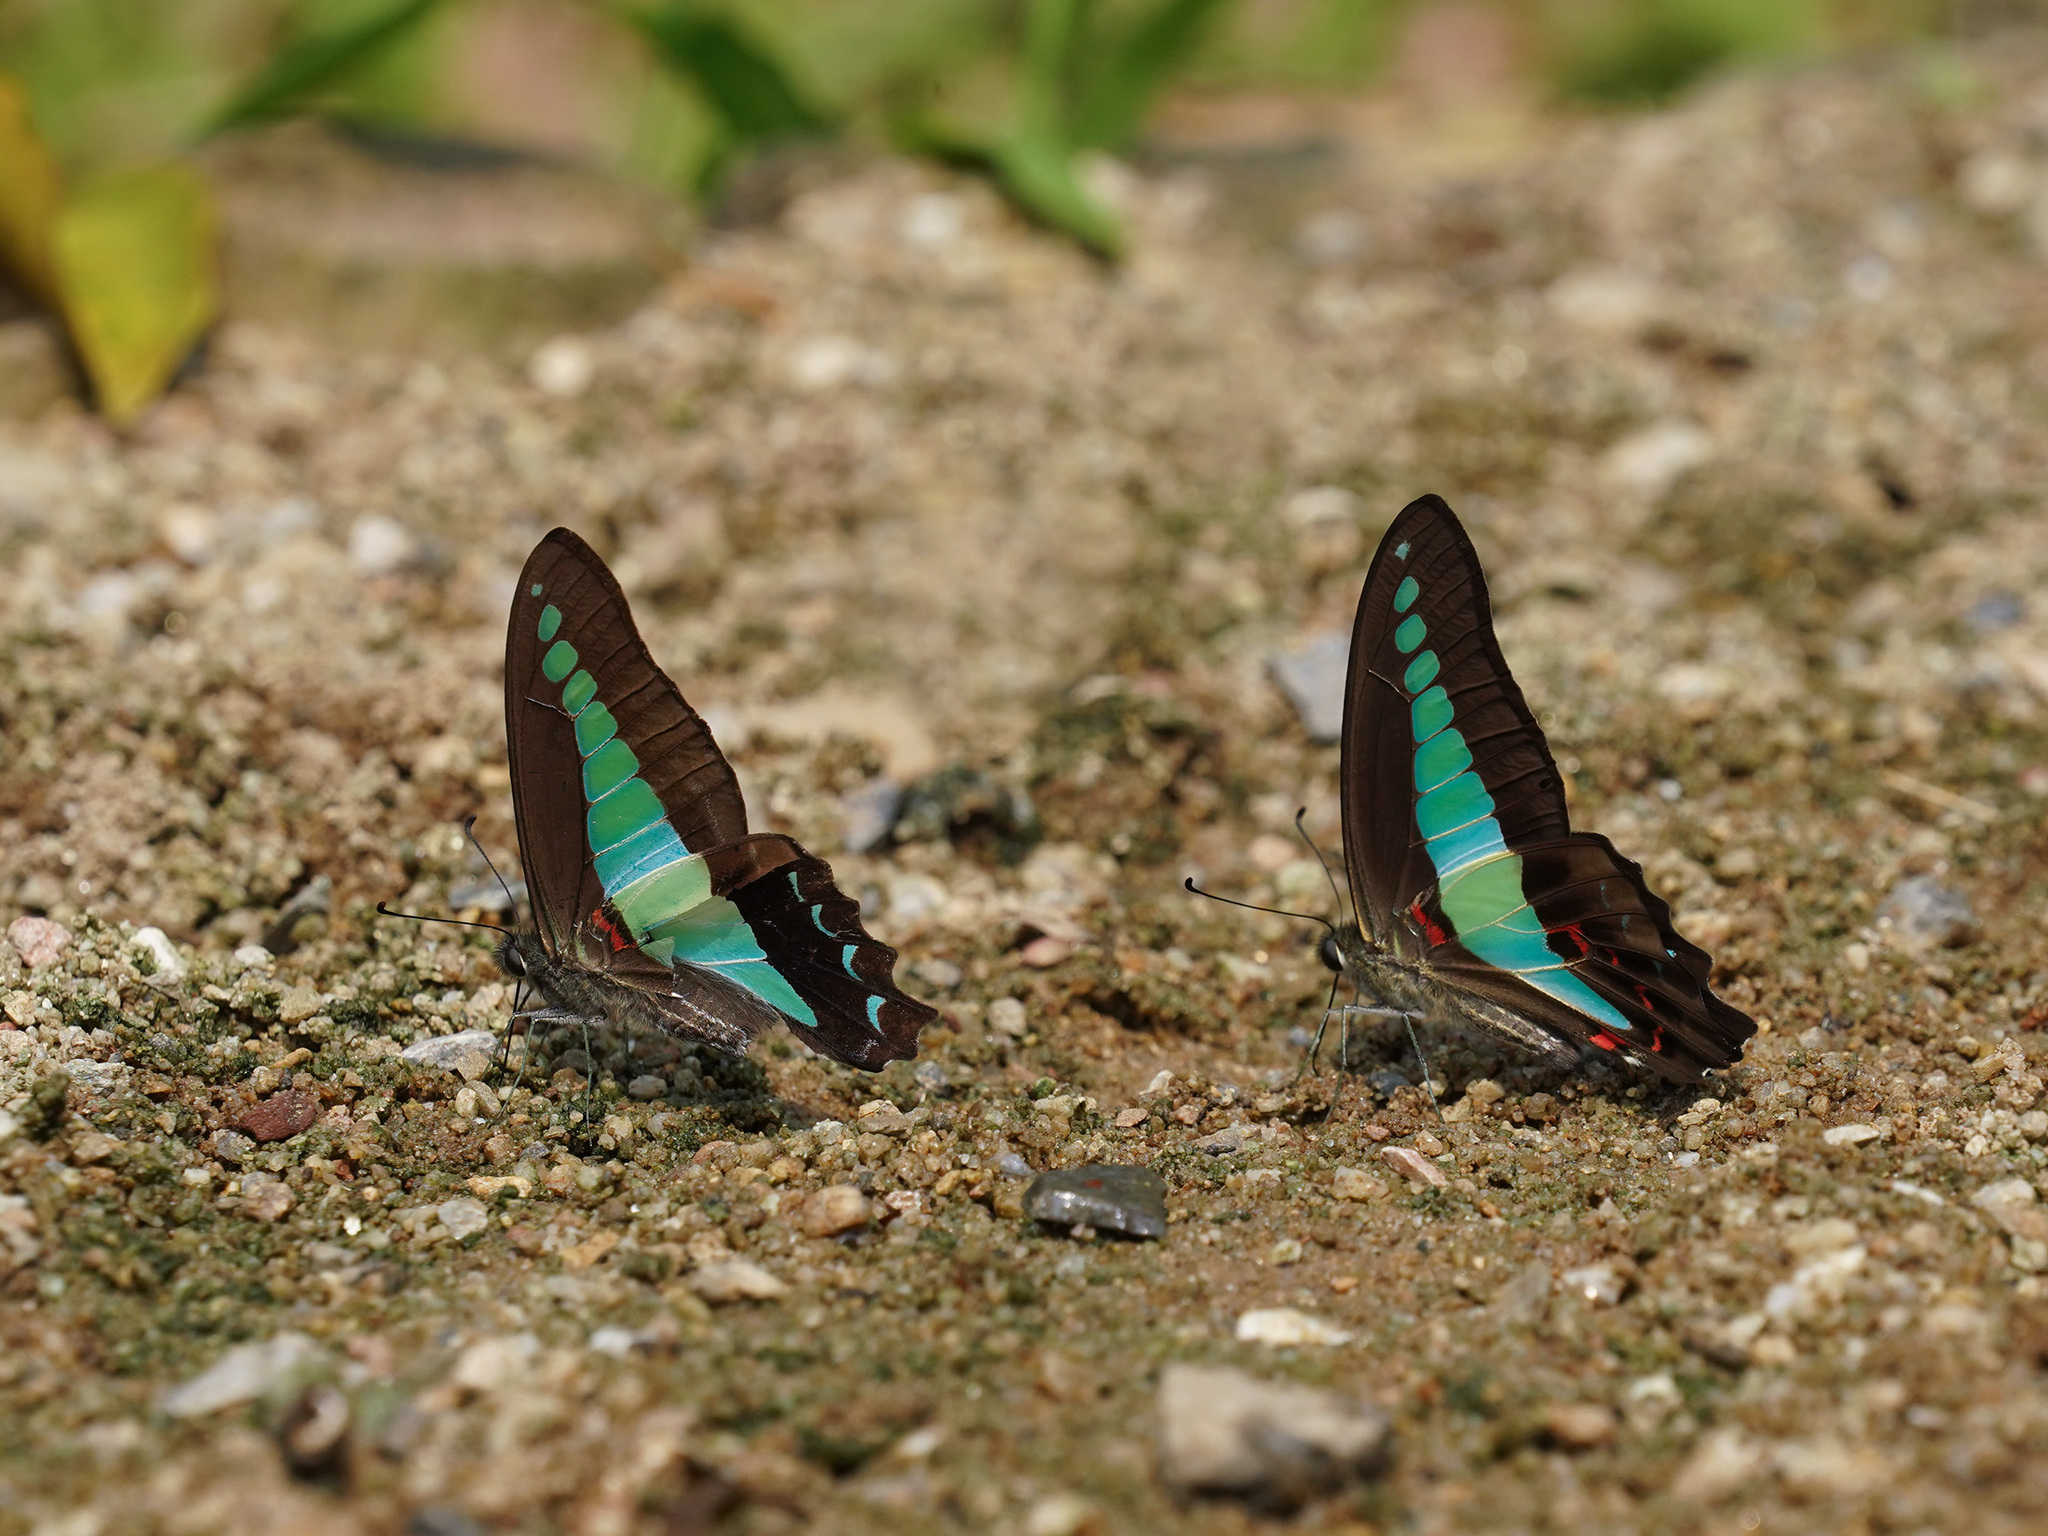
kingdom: Fungi
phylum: Ascomycota
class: Sordariomycetes
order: Microascales
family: Microascaceae
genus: Graphium
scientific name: Graphium sarpedon
